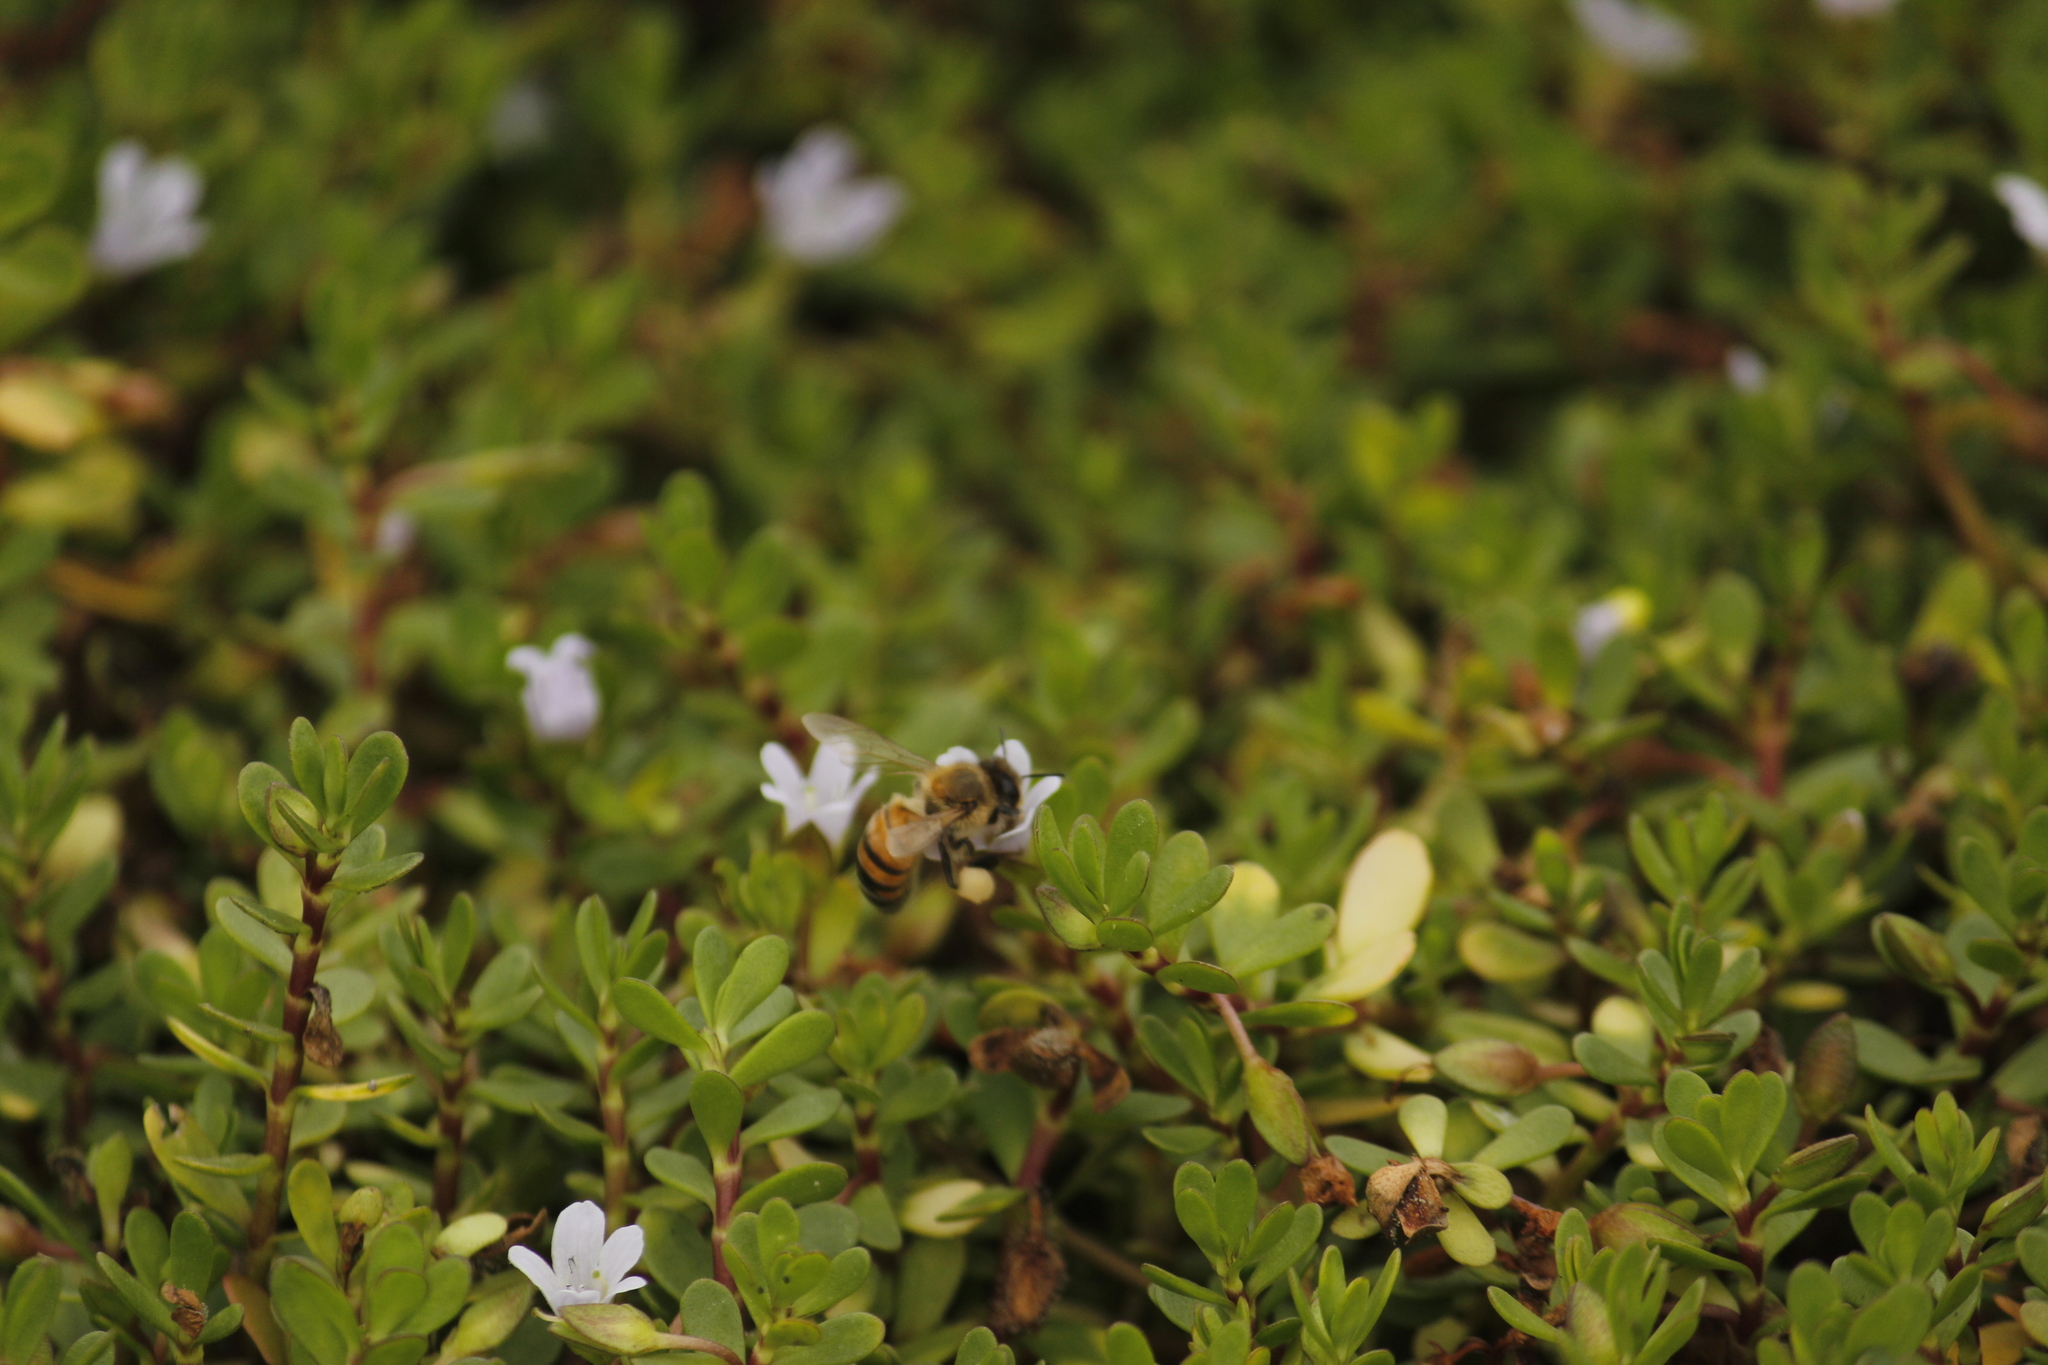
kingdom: Animalia
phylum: Arthropoda
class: Insecta
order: Hymenoptera
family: Apidae
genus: Apis
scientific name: Apis mellifera
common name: Honey bee
